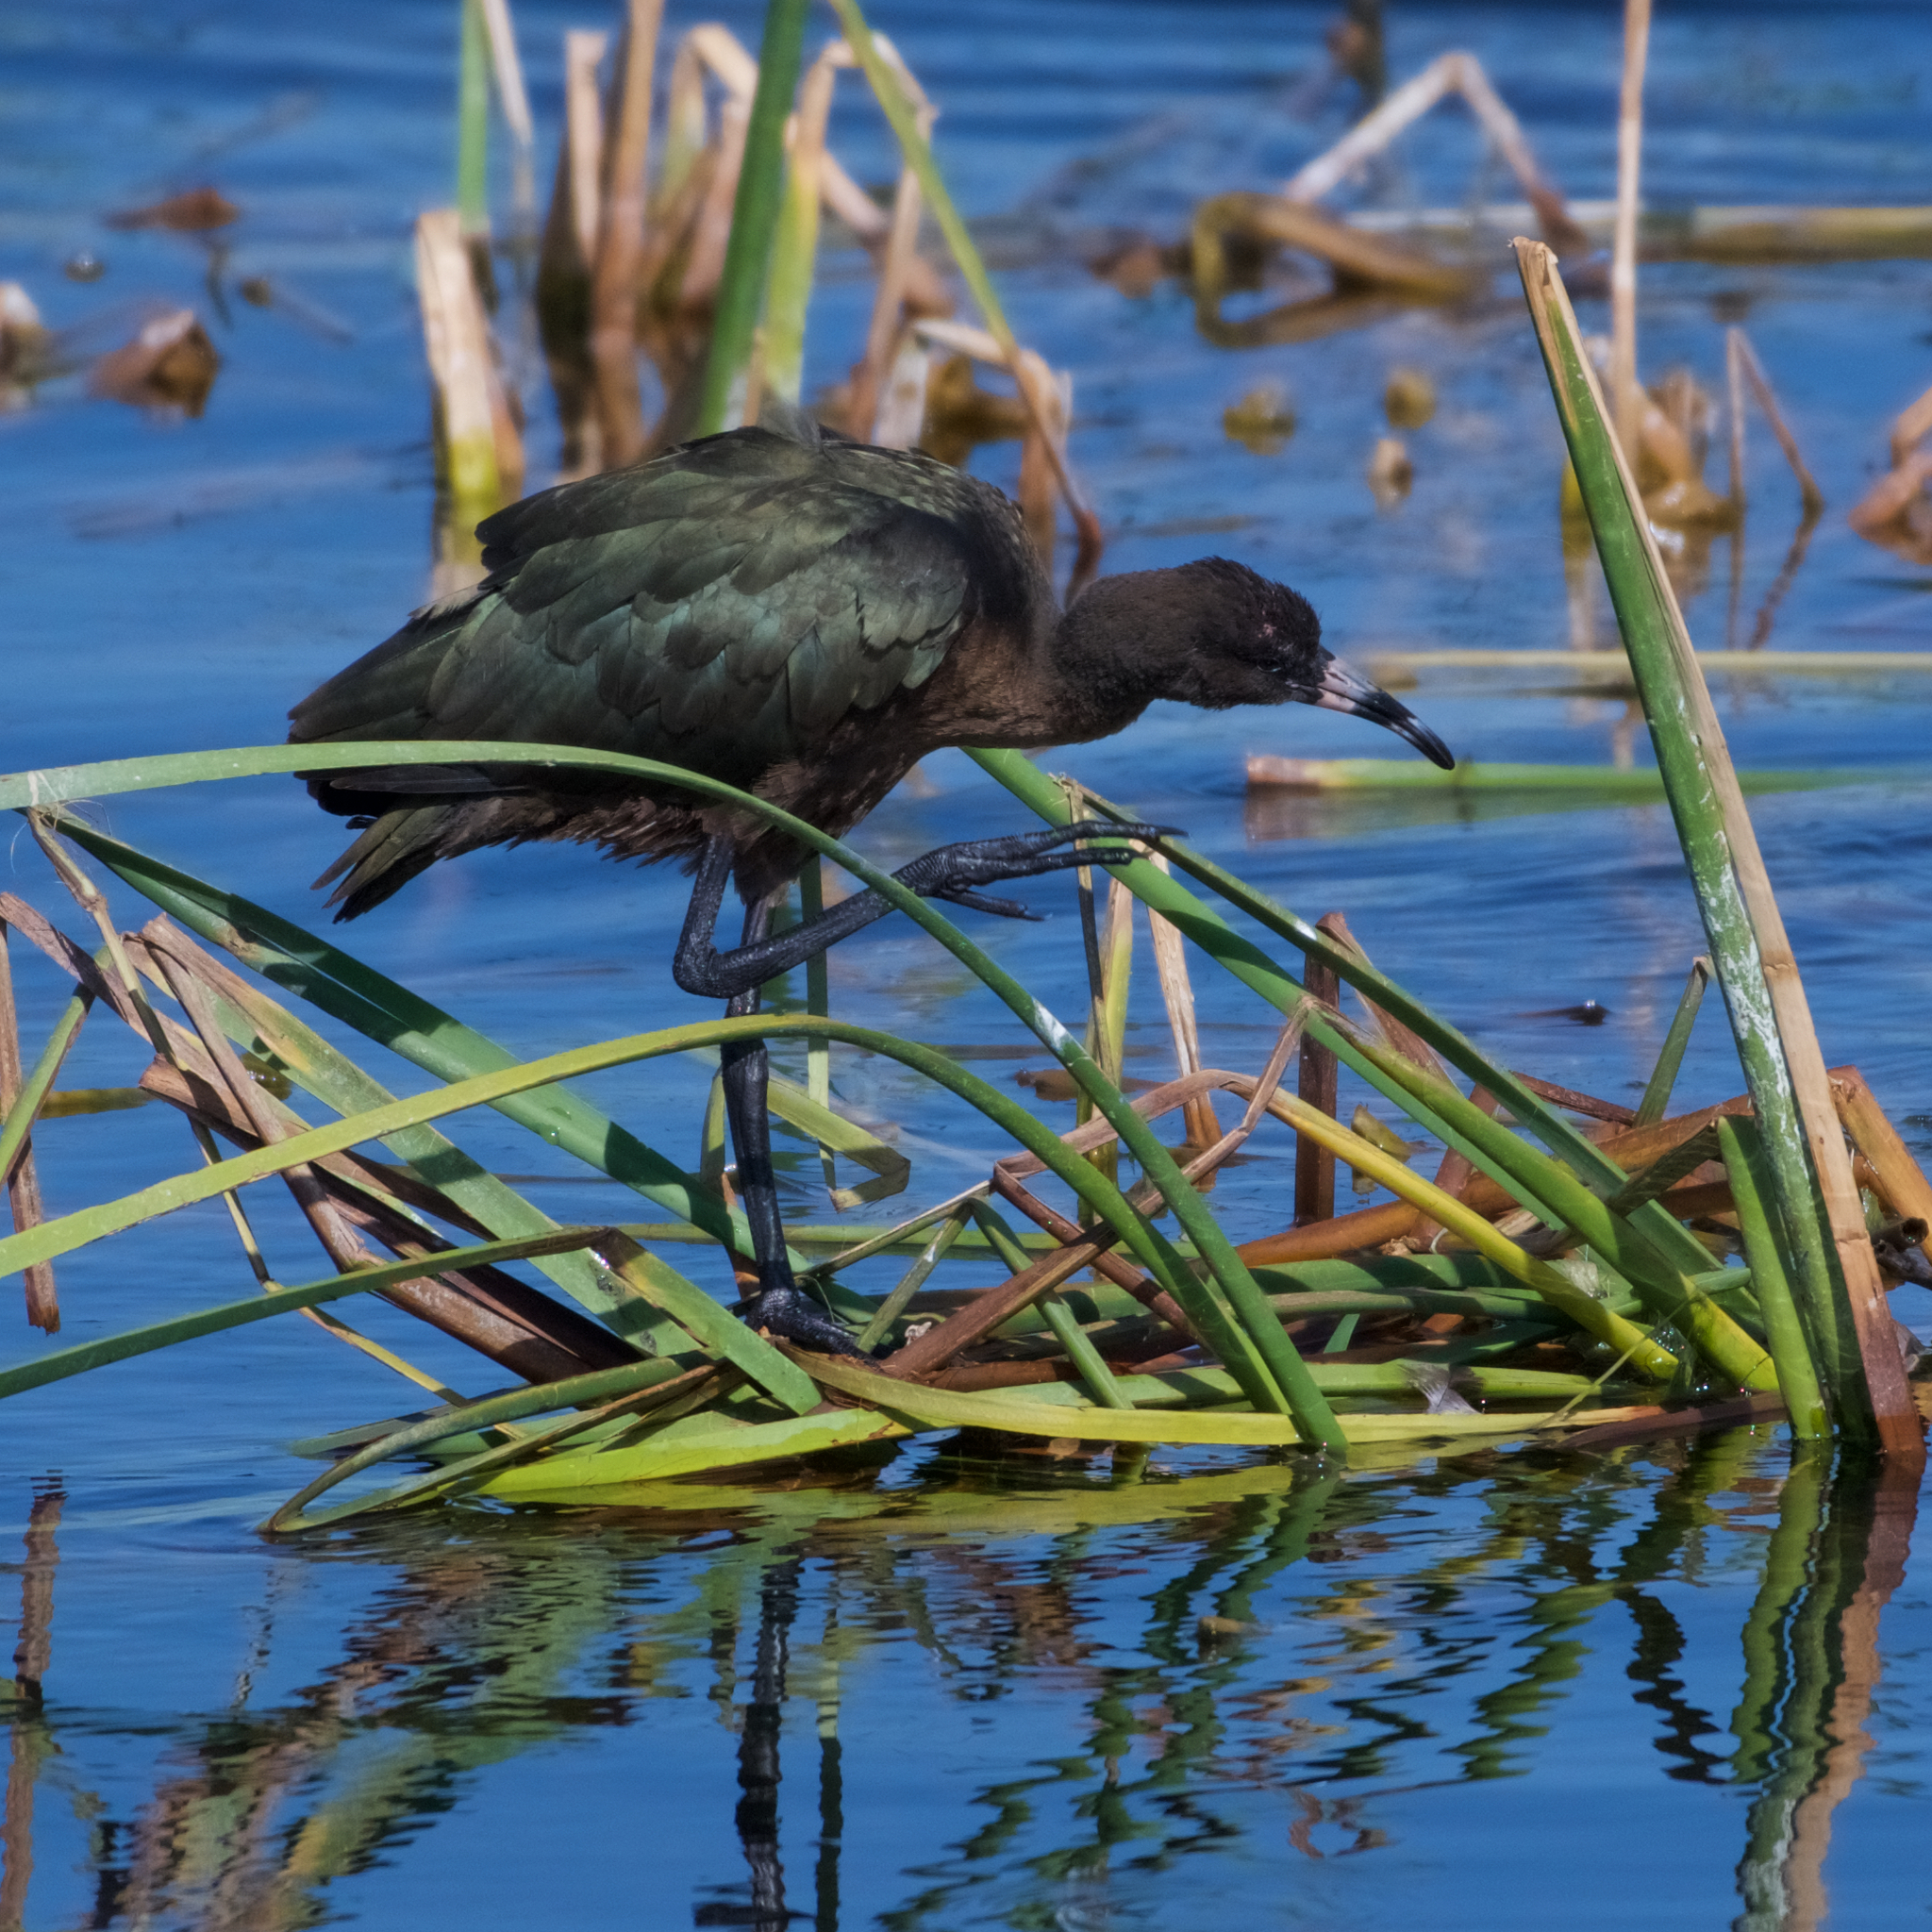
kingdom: Animalia
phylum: Chordata
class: Aves
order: Pelecaniformes
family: Threskiornithidae
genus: Plegadis
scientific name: Plegadis chihi
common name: White-faced ibis
